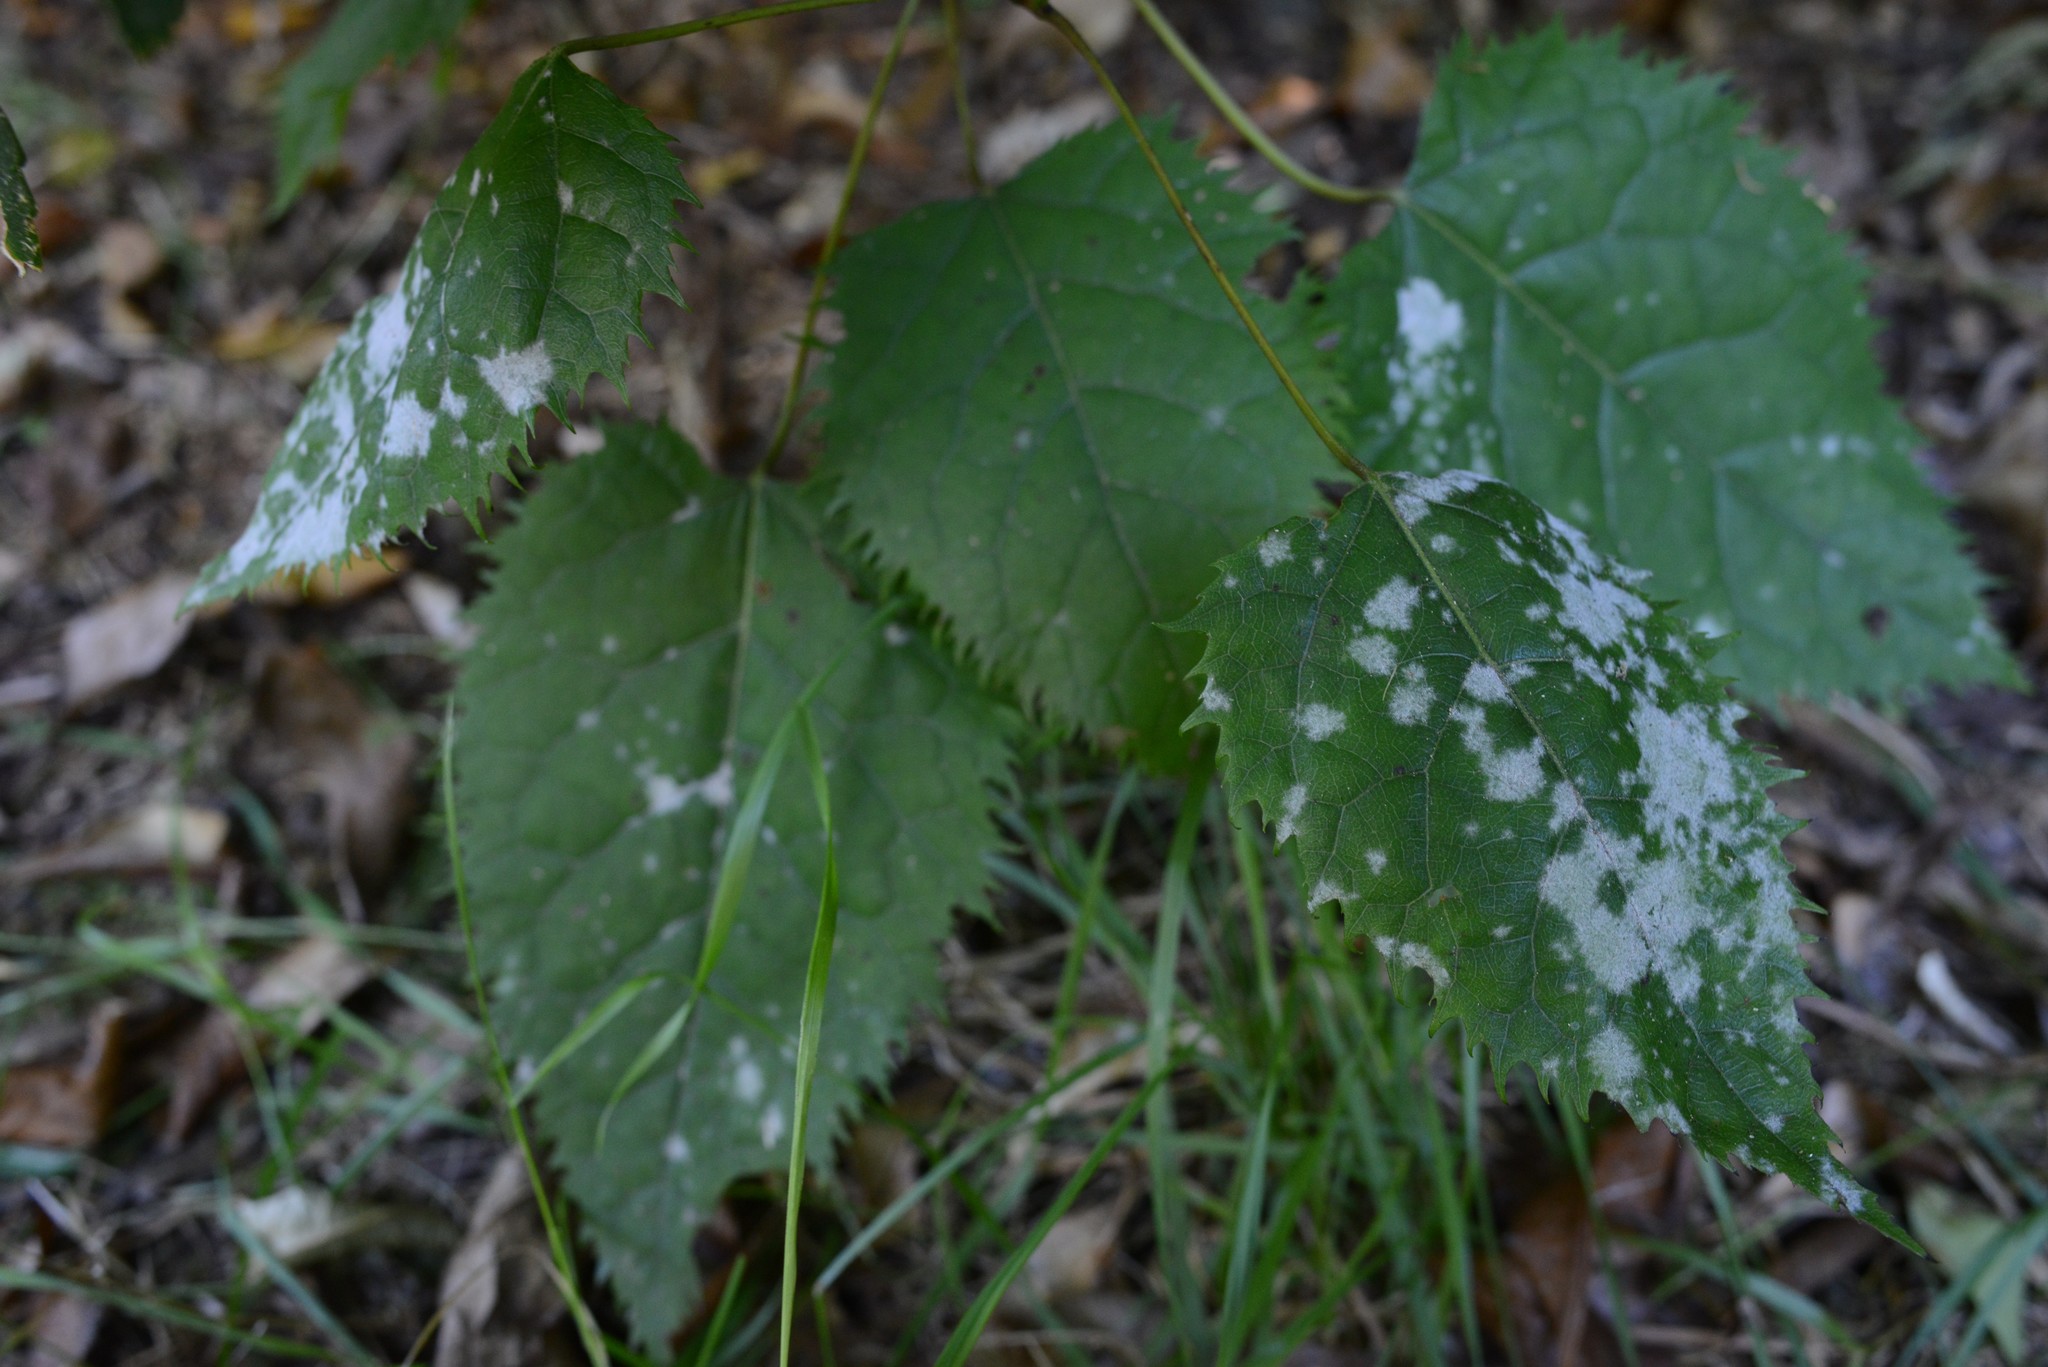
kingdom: Fungi
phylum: Ascomycota
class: Leotiomycetes
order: Helotiales
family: Erysiphaceae
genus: Erysiphe
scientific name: Erysiphe densa
